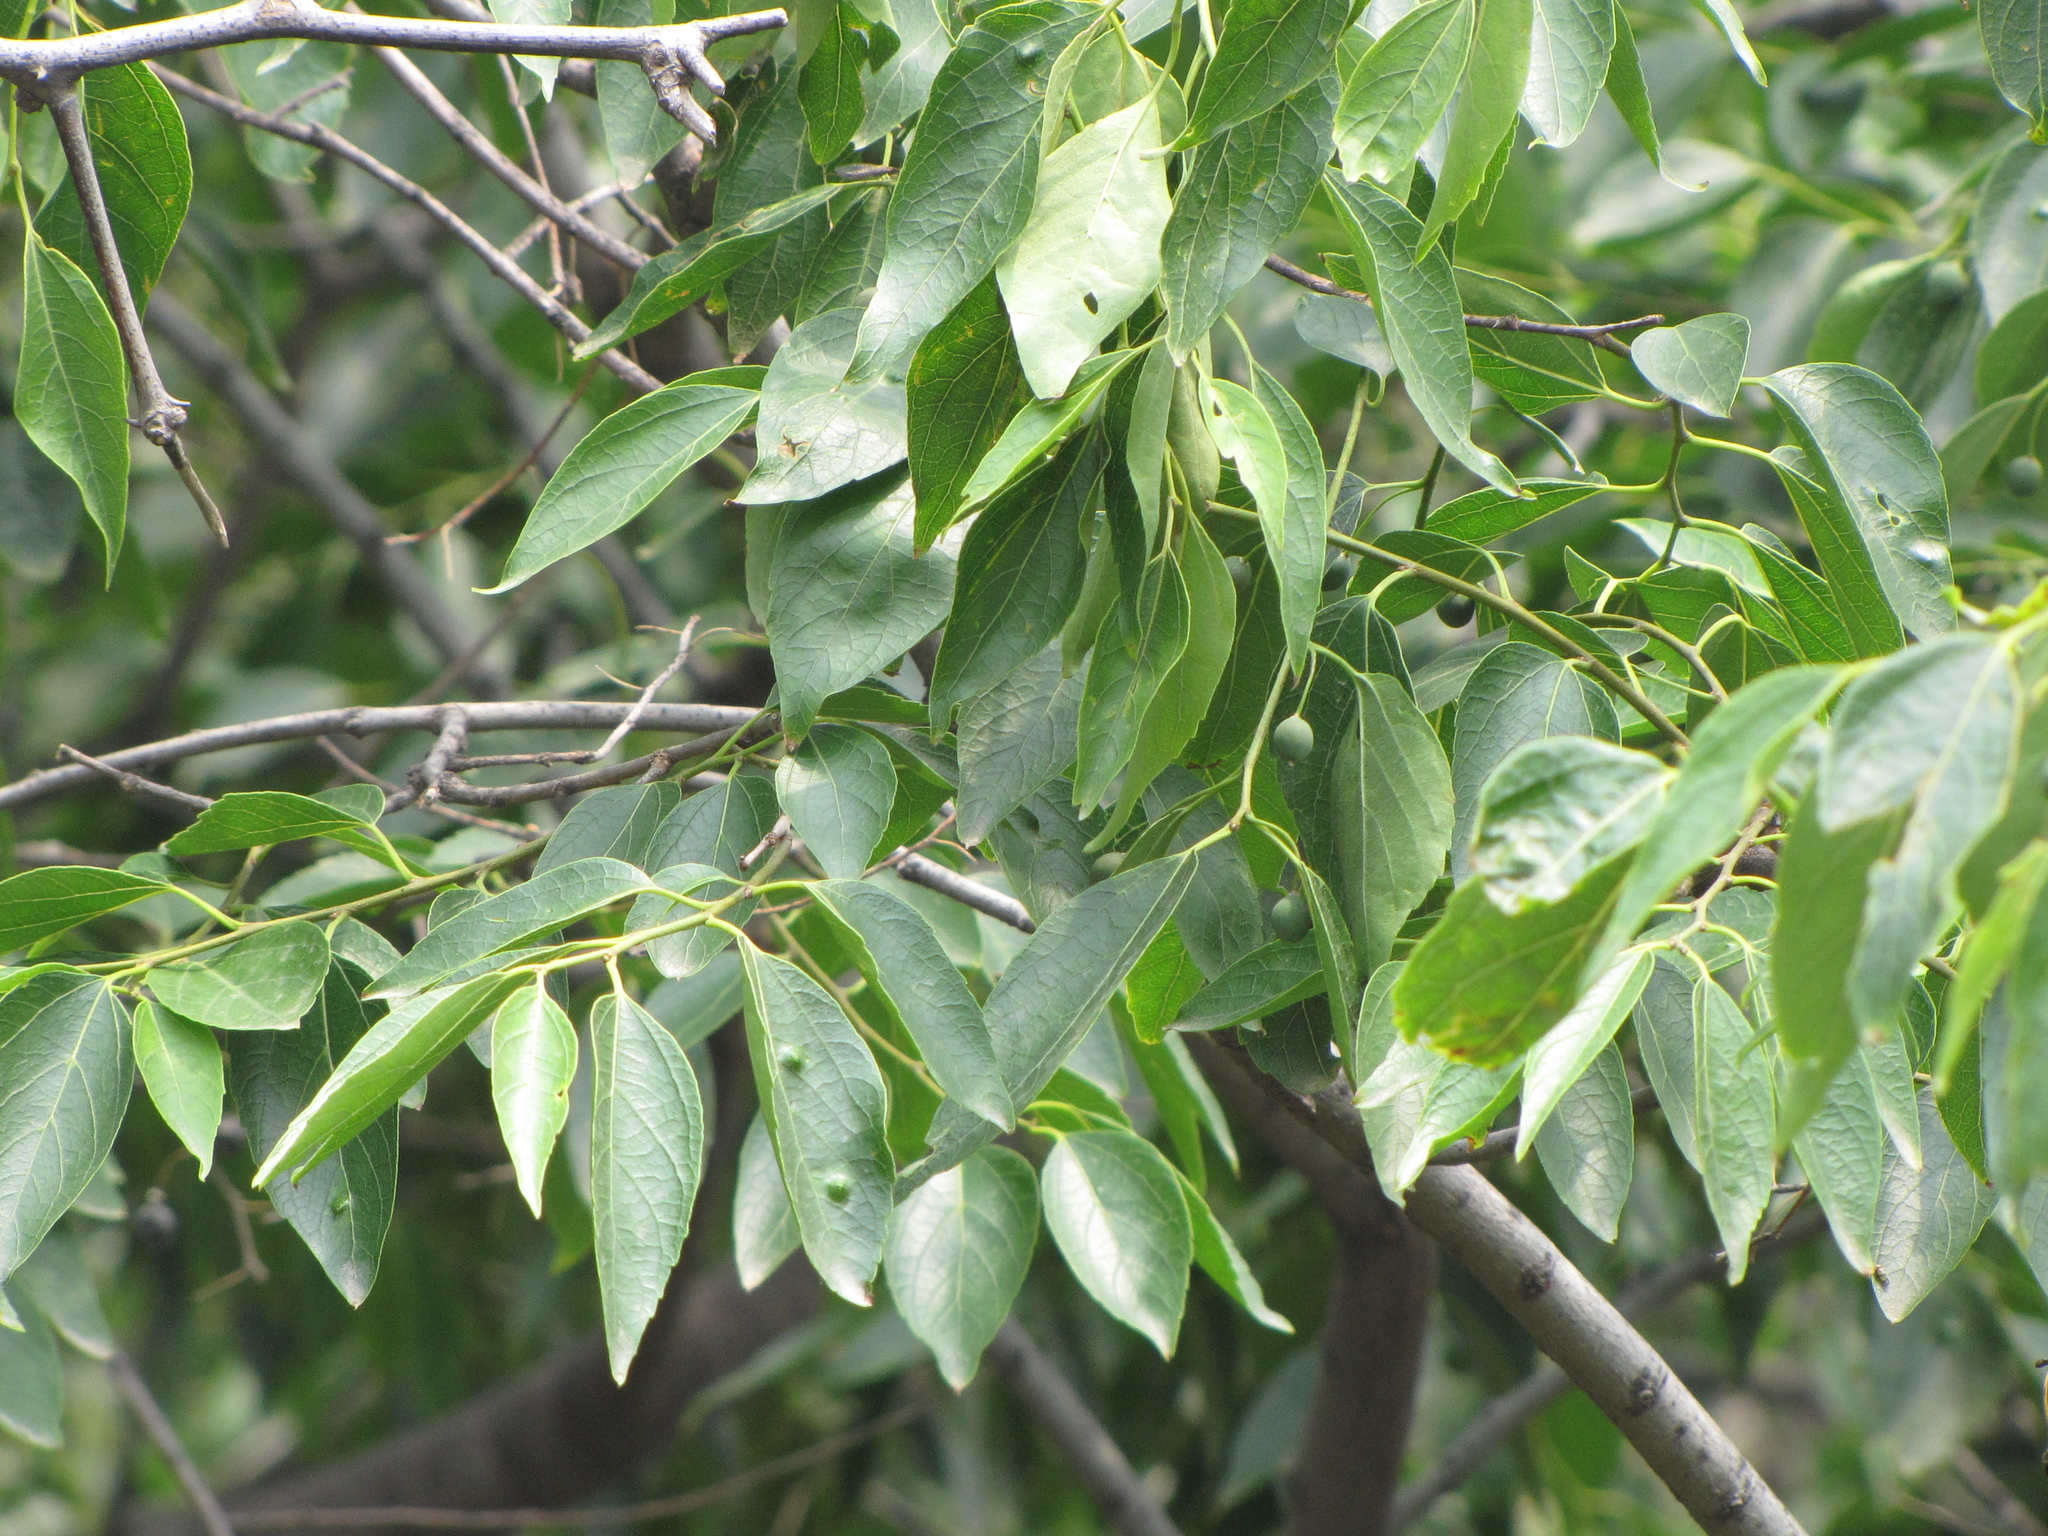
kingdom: Plantae
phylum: Tracheophyta
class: Magnoliopsida
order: Rosales
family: Cannabaceae
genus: Celtis
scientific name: Celtis bungeana
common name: Bunge's hackberry
